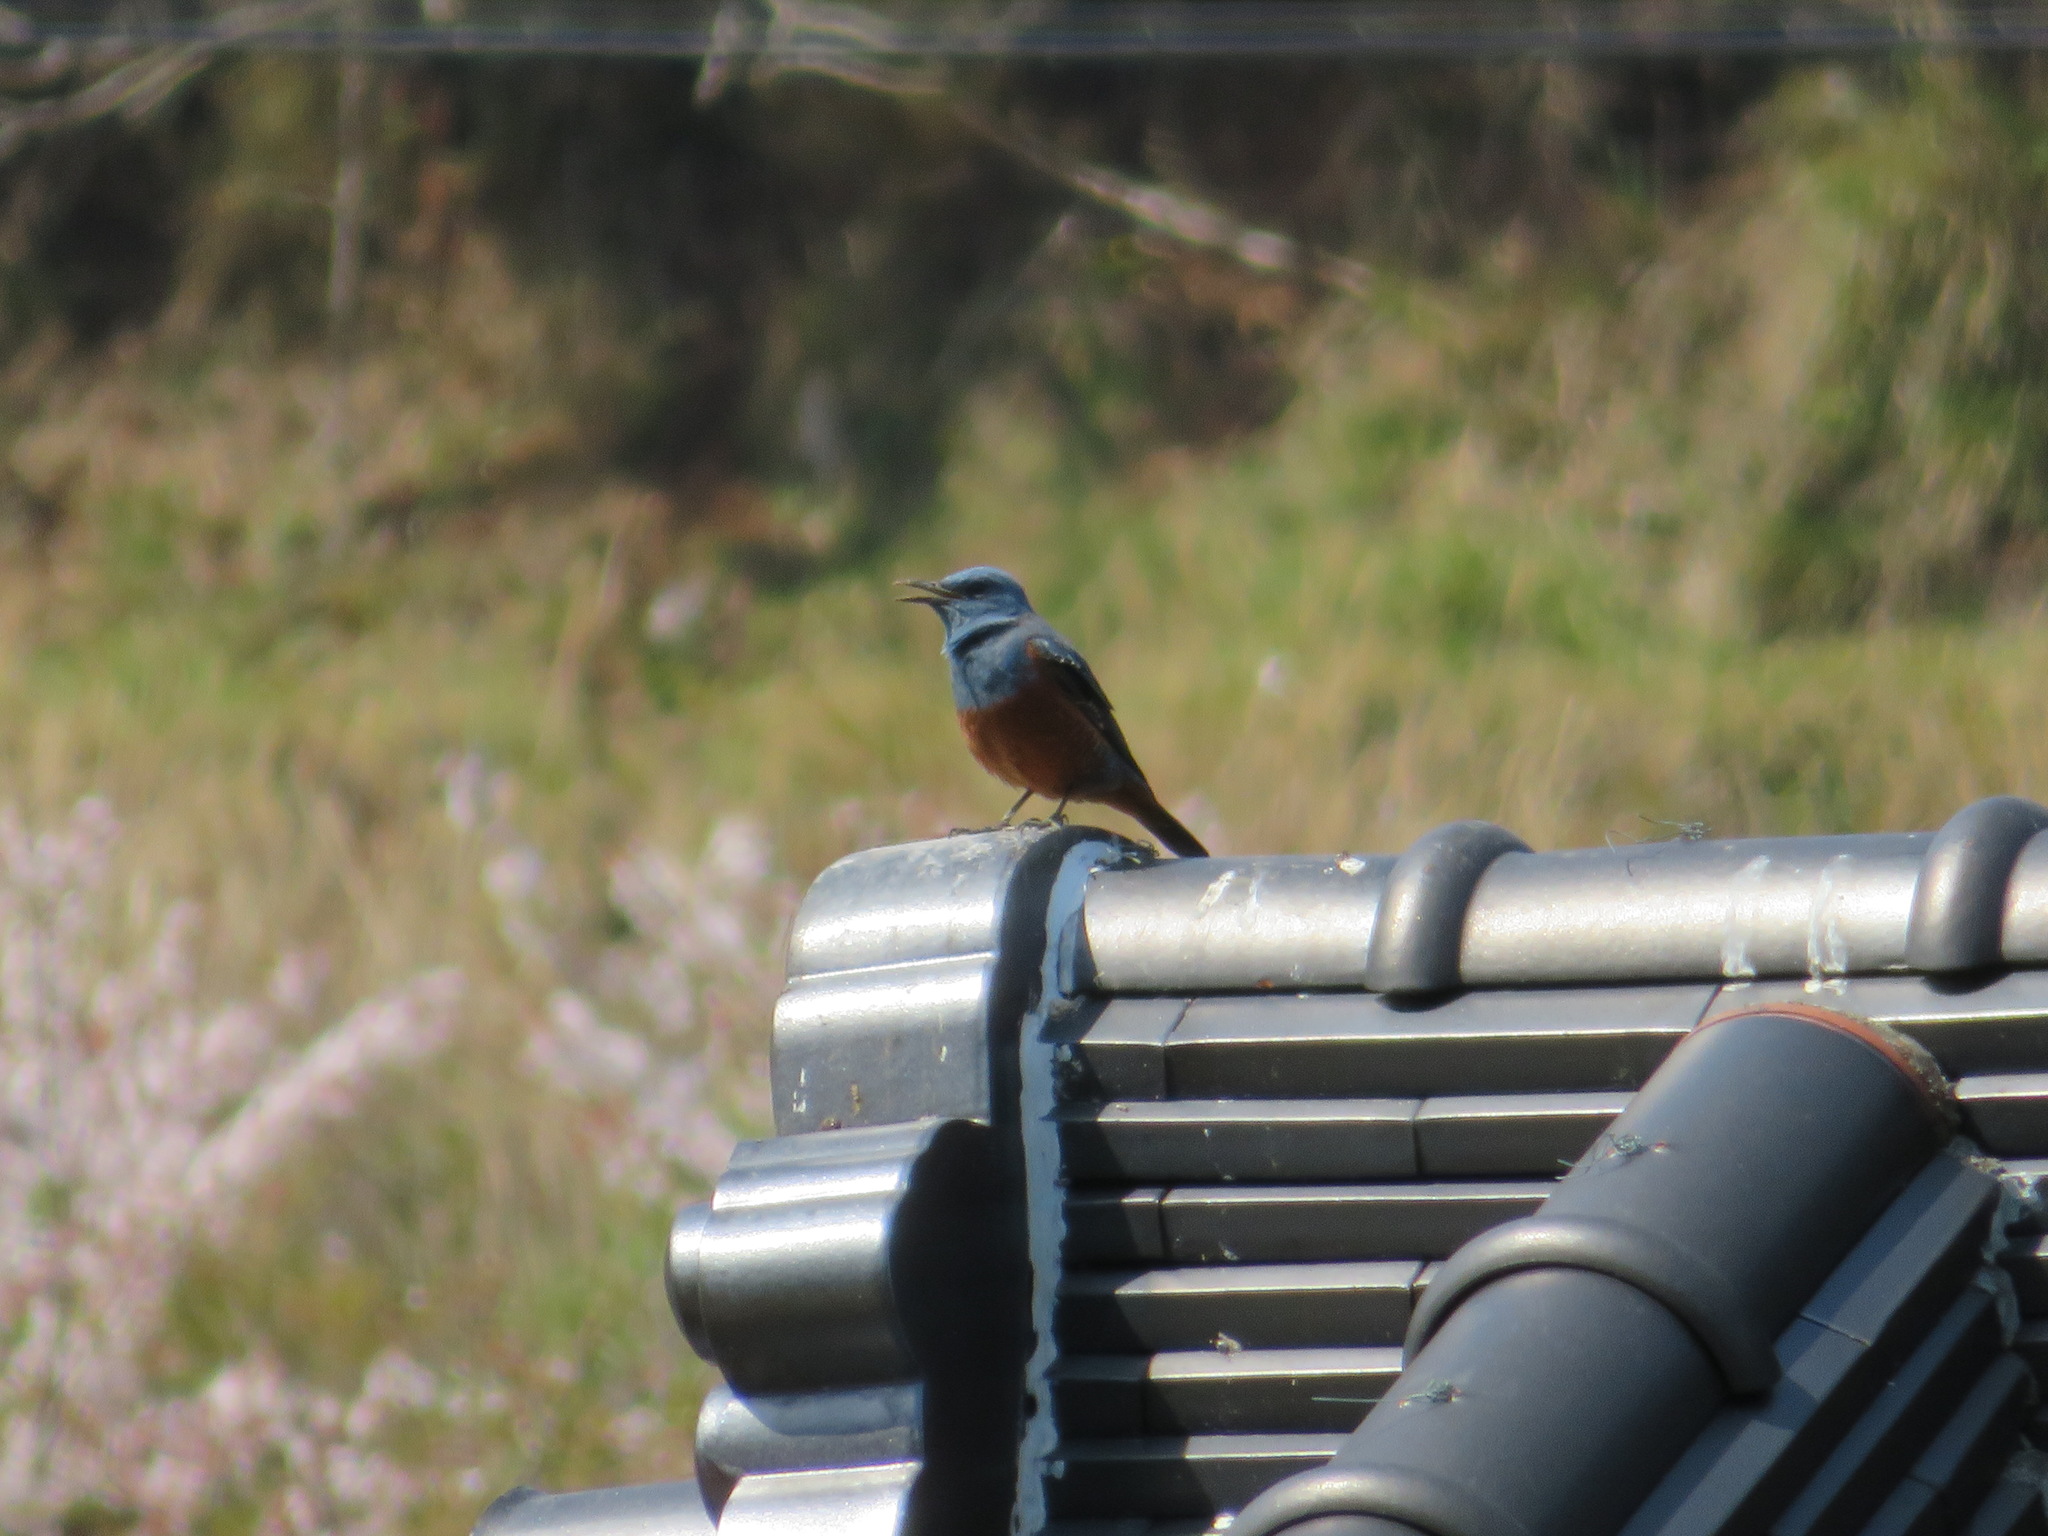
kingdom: Animalia
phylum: Chordata
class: Aves
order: Passeriformes
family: Muscicapidae
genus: Monticola
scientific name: Monticola solitarius
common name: Blue rock thrush
